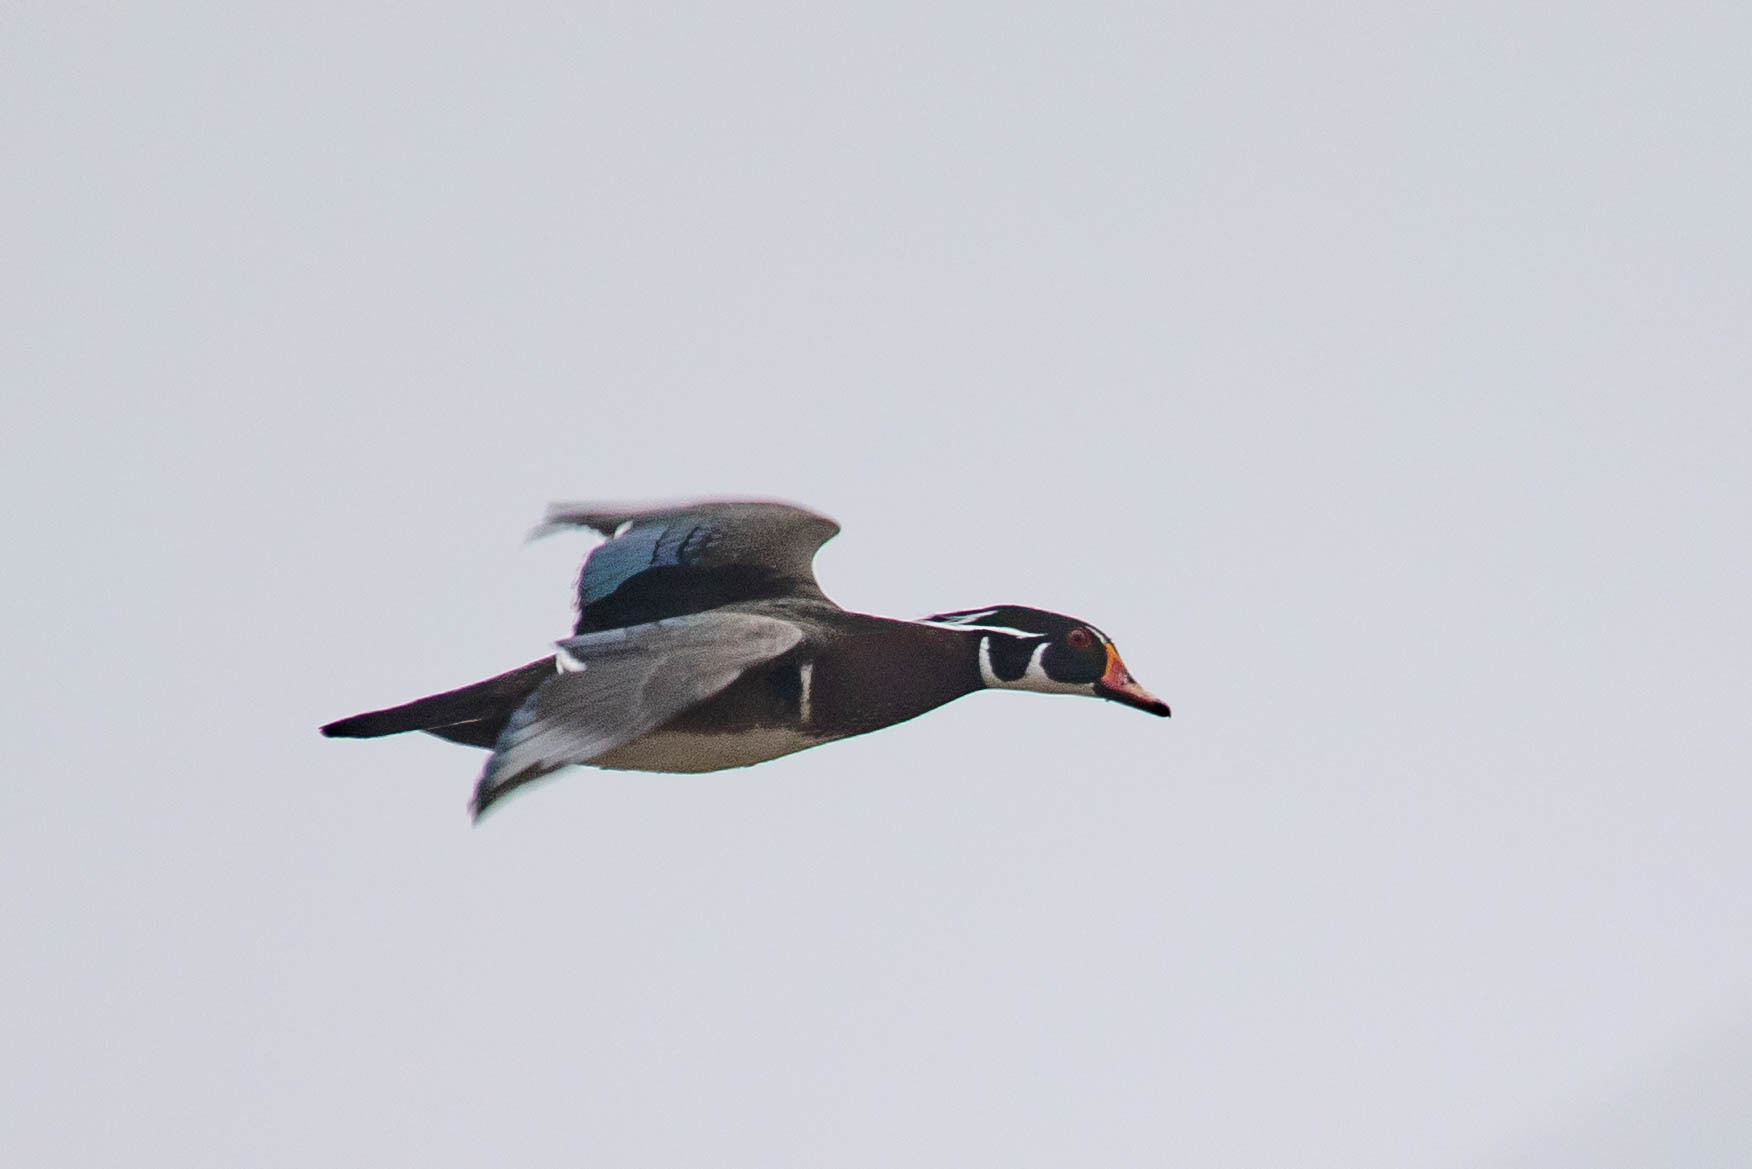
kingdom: Animalia
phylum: Chordata
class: Aves
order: Anseriformes
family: Anatidae
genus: Aix
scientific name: Aix sponsa
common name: Wood duck
